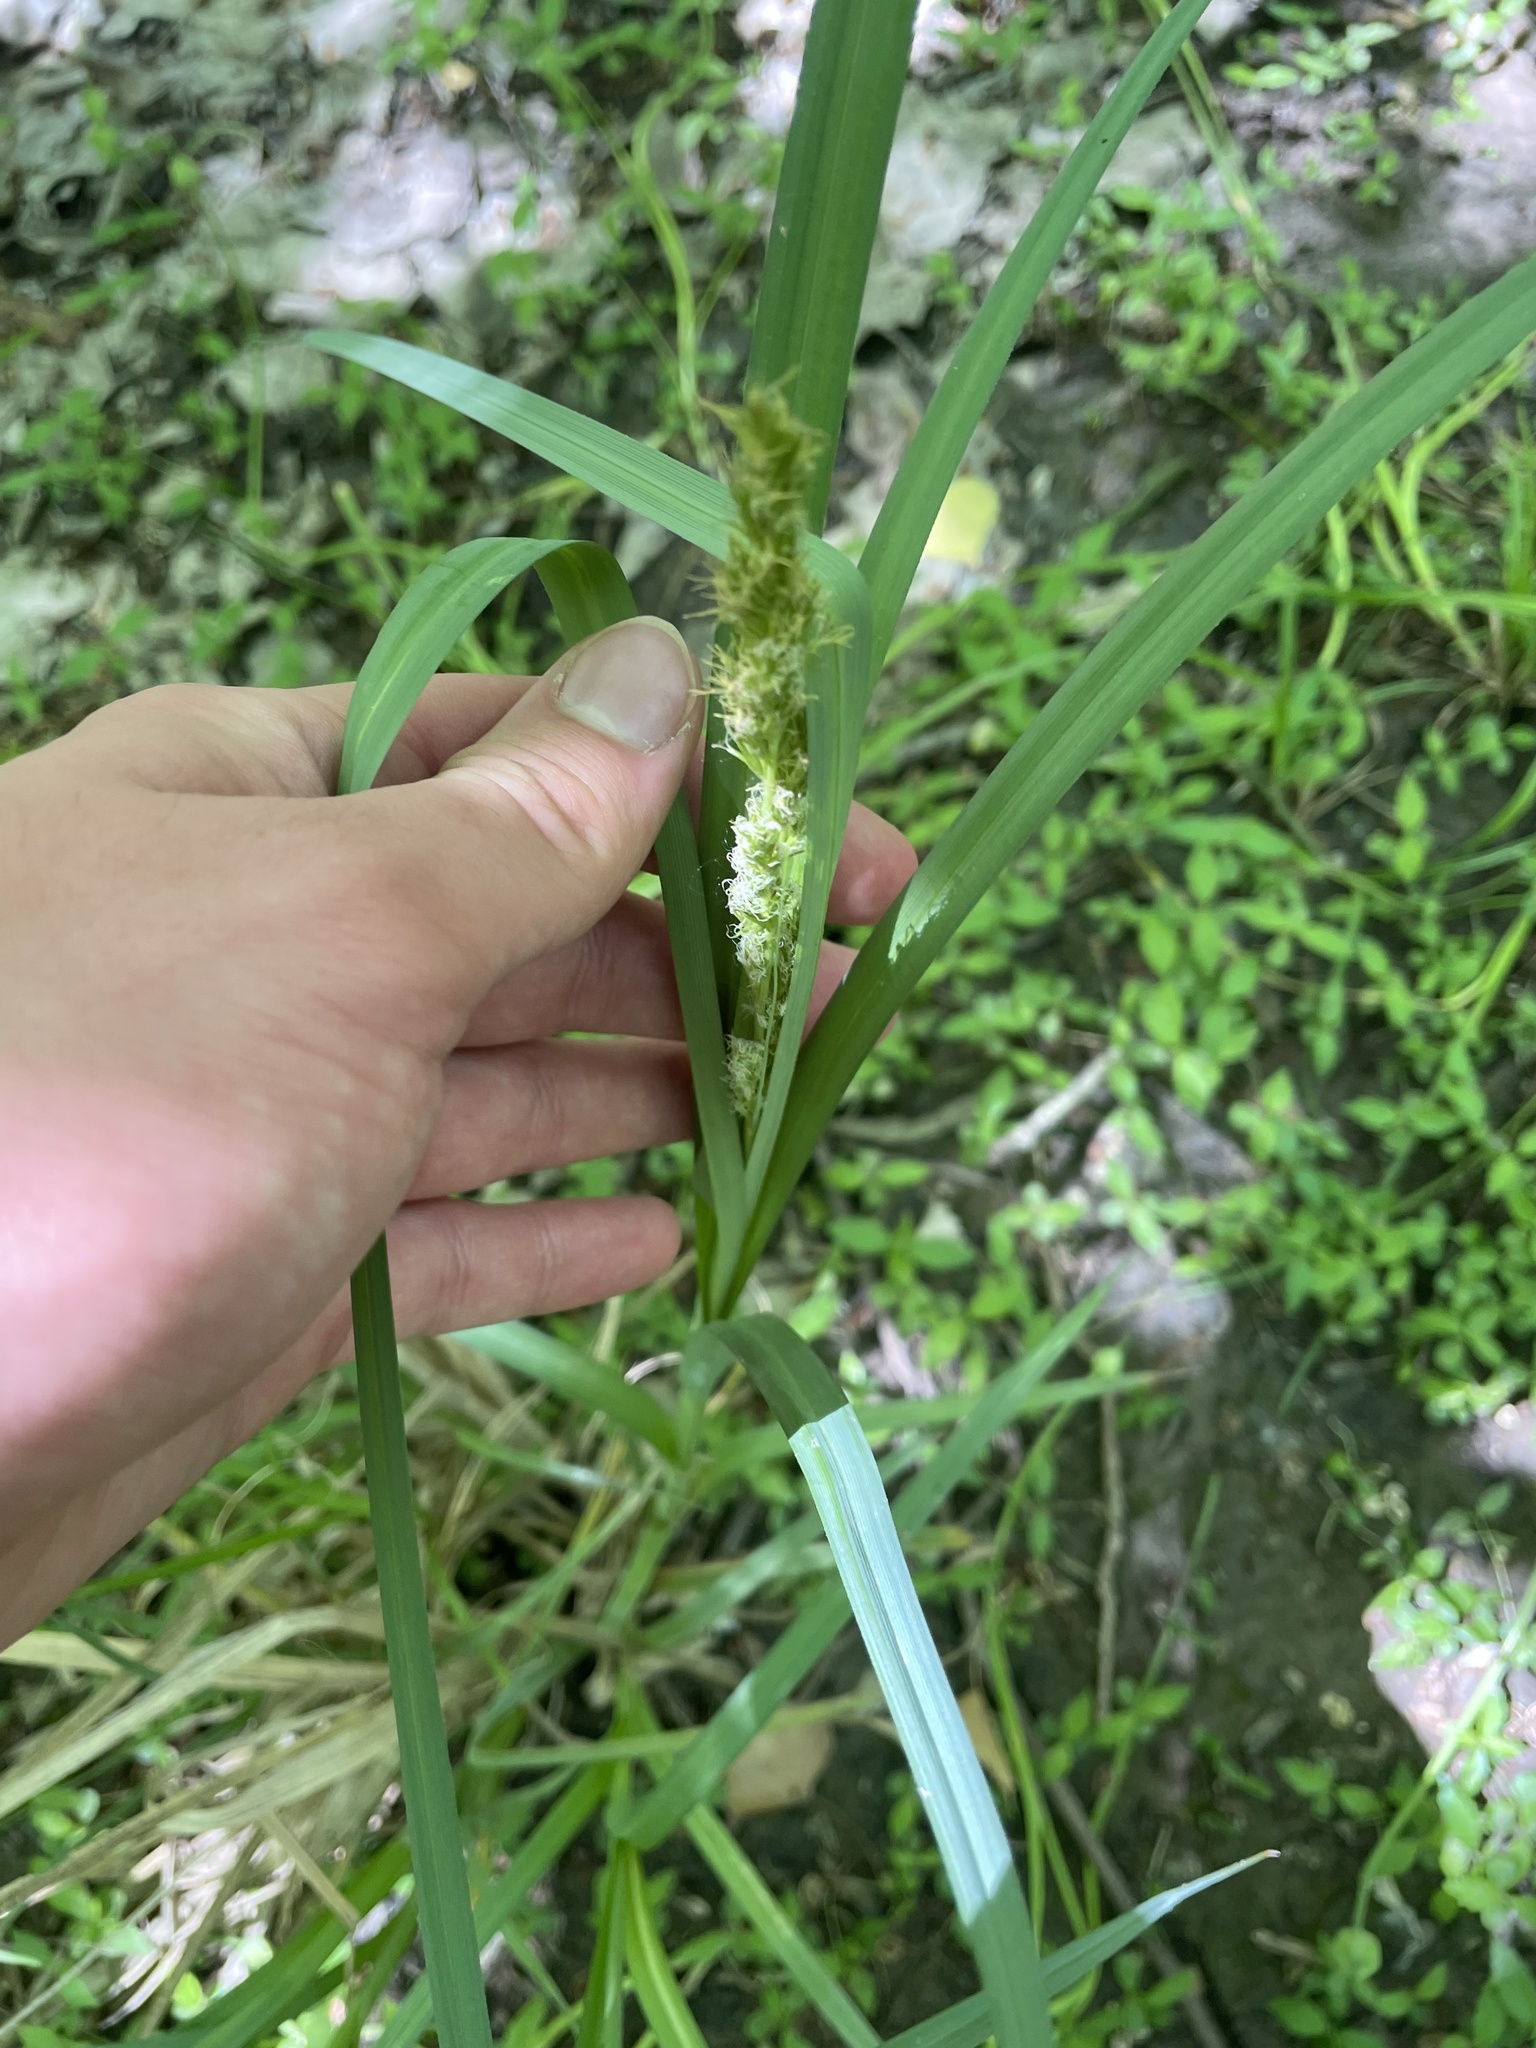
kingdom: Plantae
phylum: Tracheophyta
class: Liliopsida
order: Poales
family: Cyperaceae
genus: Carex
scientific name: Carex crus-corvi
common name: Crow-spur sedge
